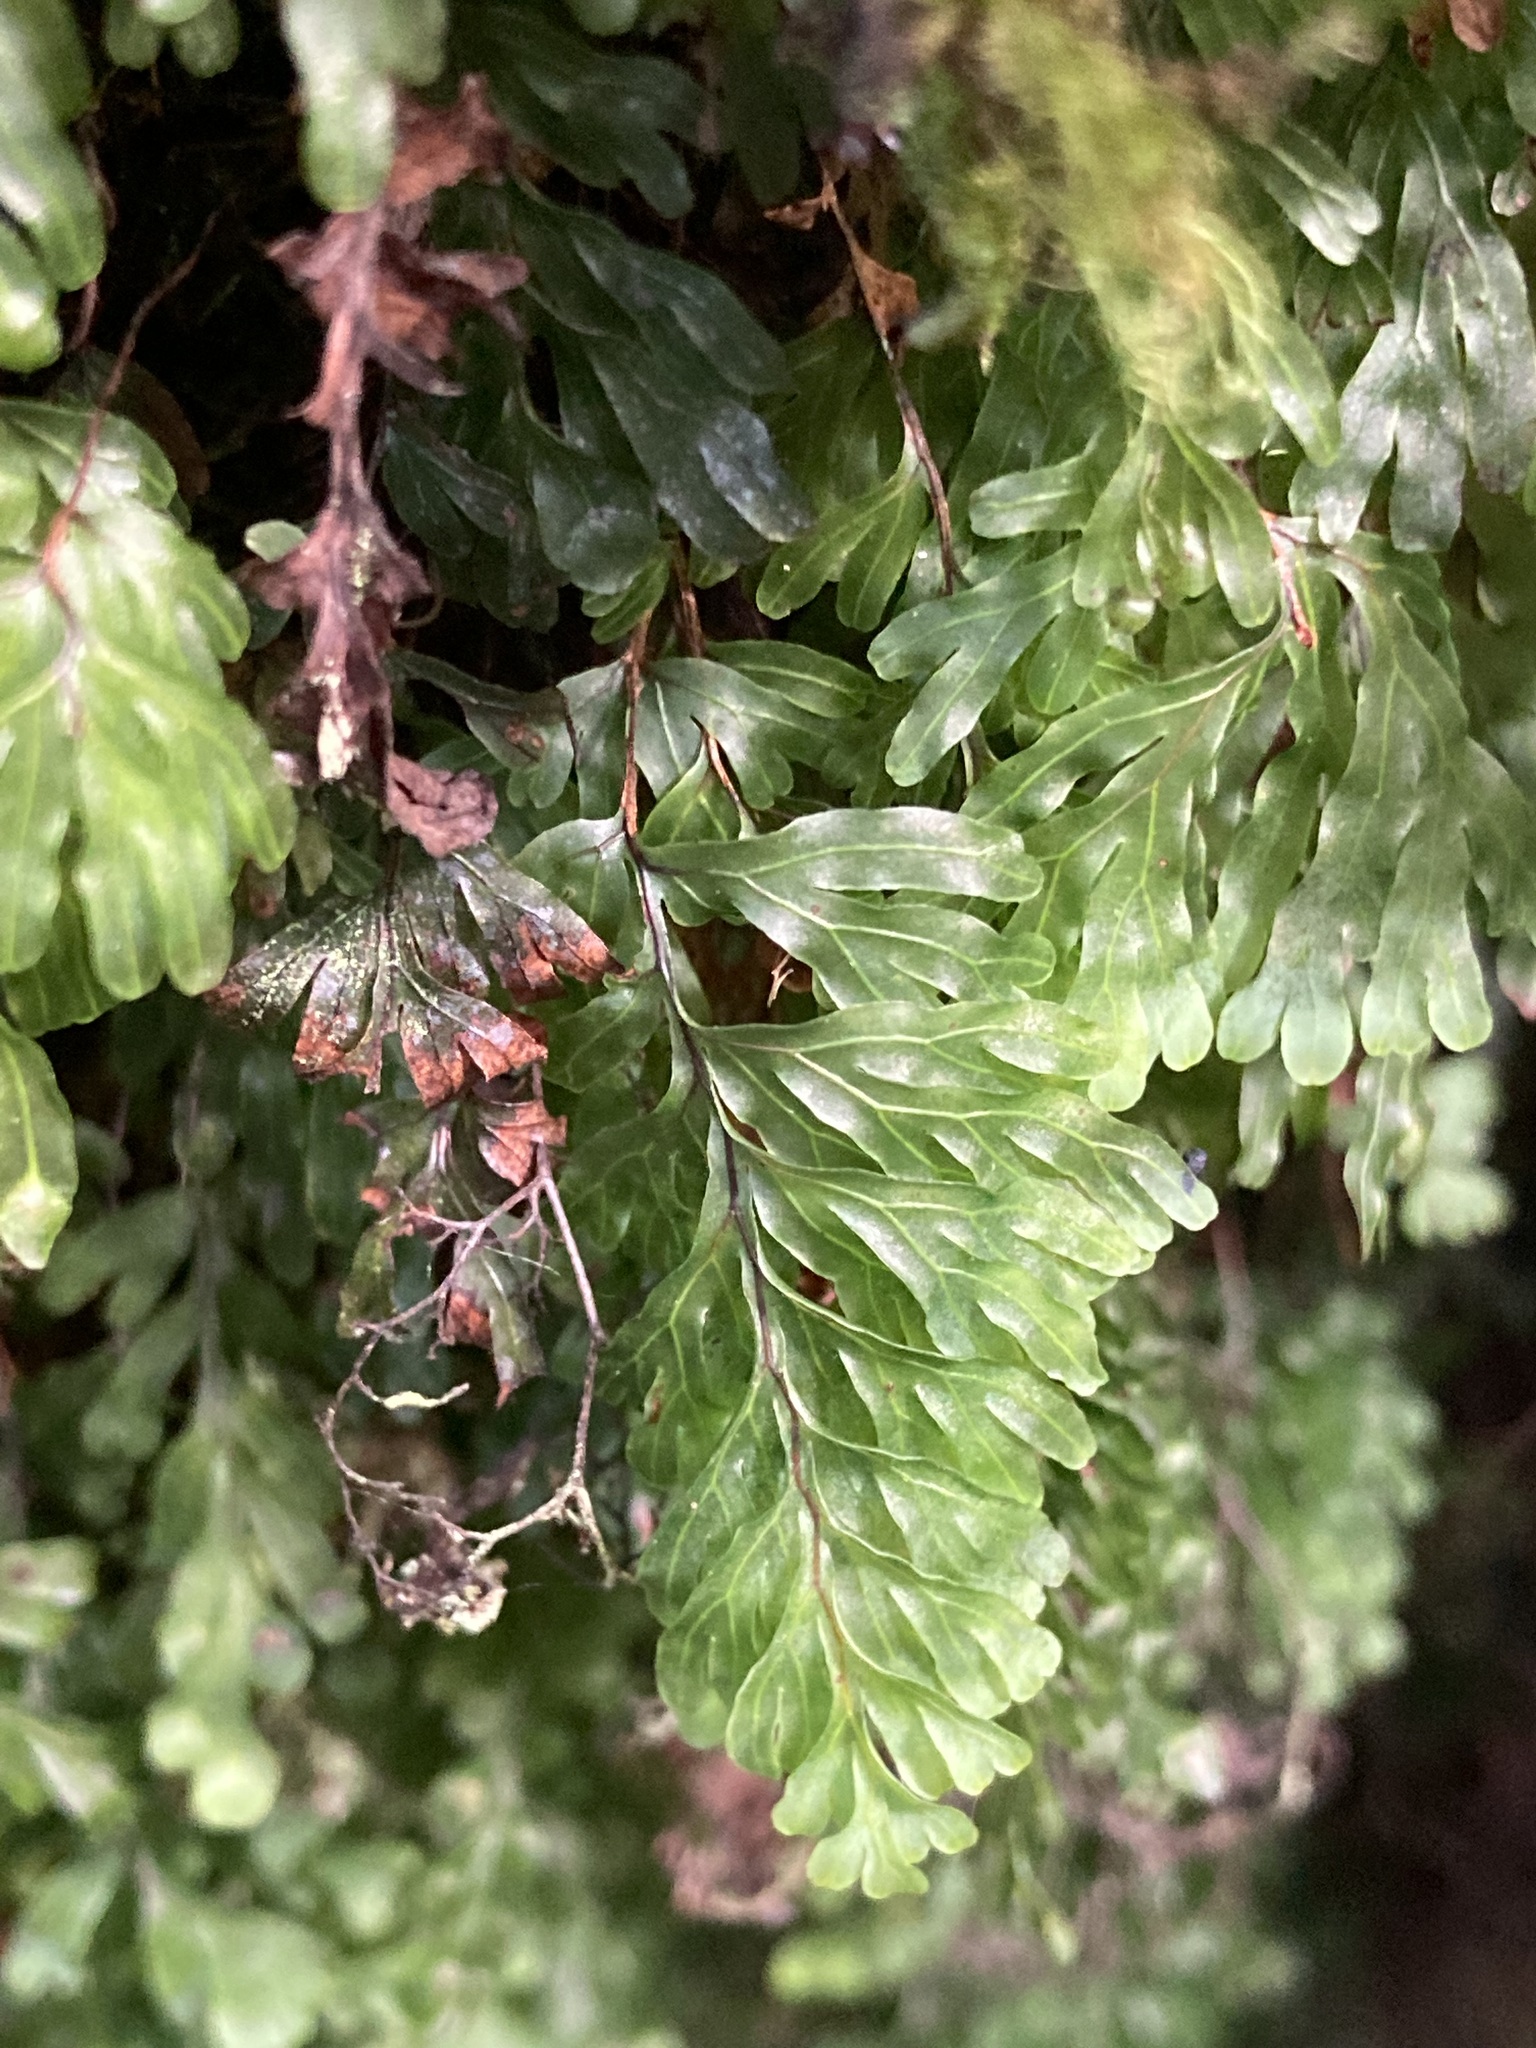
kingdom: Plantae
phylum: Tracheophyta
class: Polypodiopsida
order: Hymenophyllales
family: Hymenophyllaceae
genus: Hymenophyllum
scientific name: Hymenophyllum rarum
